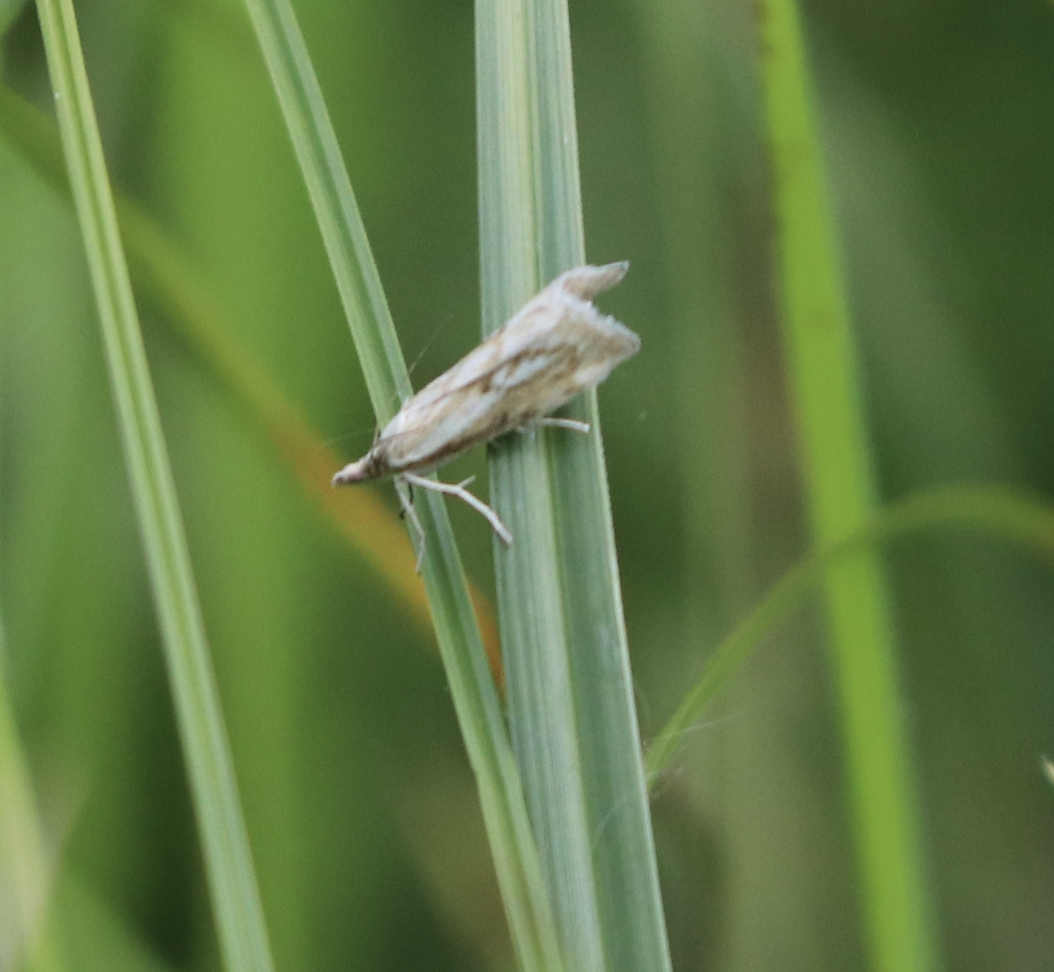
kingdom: Animalia
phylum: Arthropoda
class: Insecta
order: Lepidoptera
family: Crambidae
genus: Catoptria
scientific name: Catoptria petrificella
